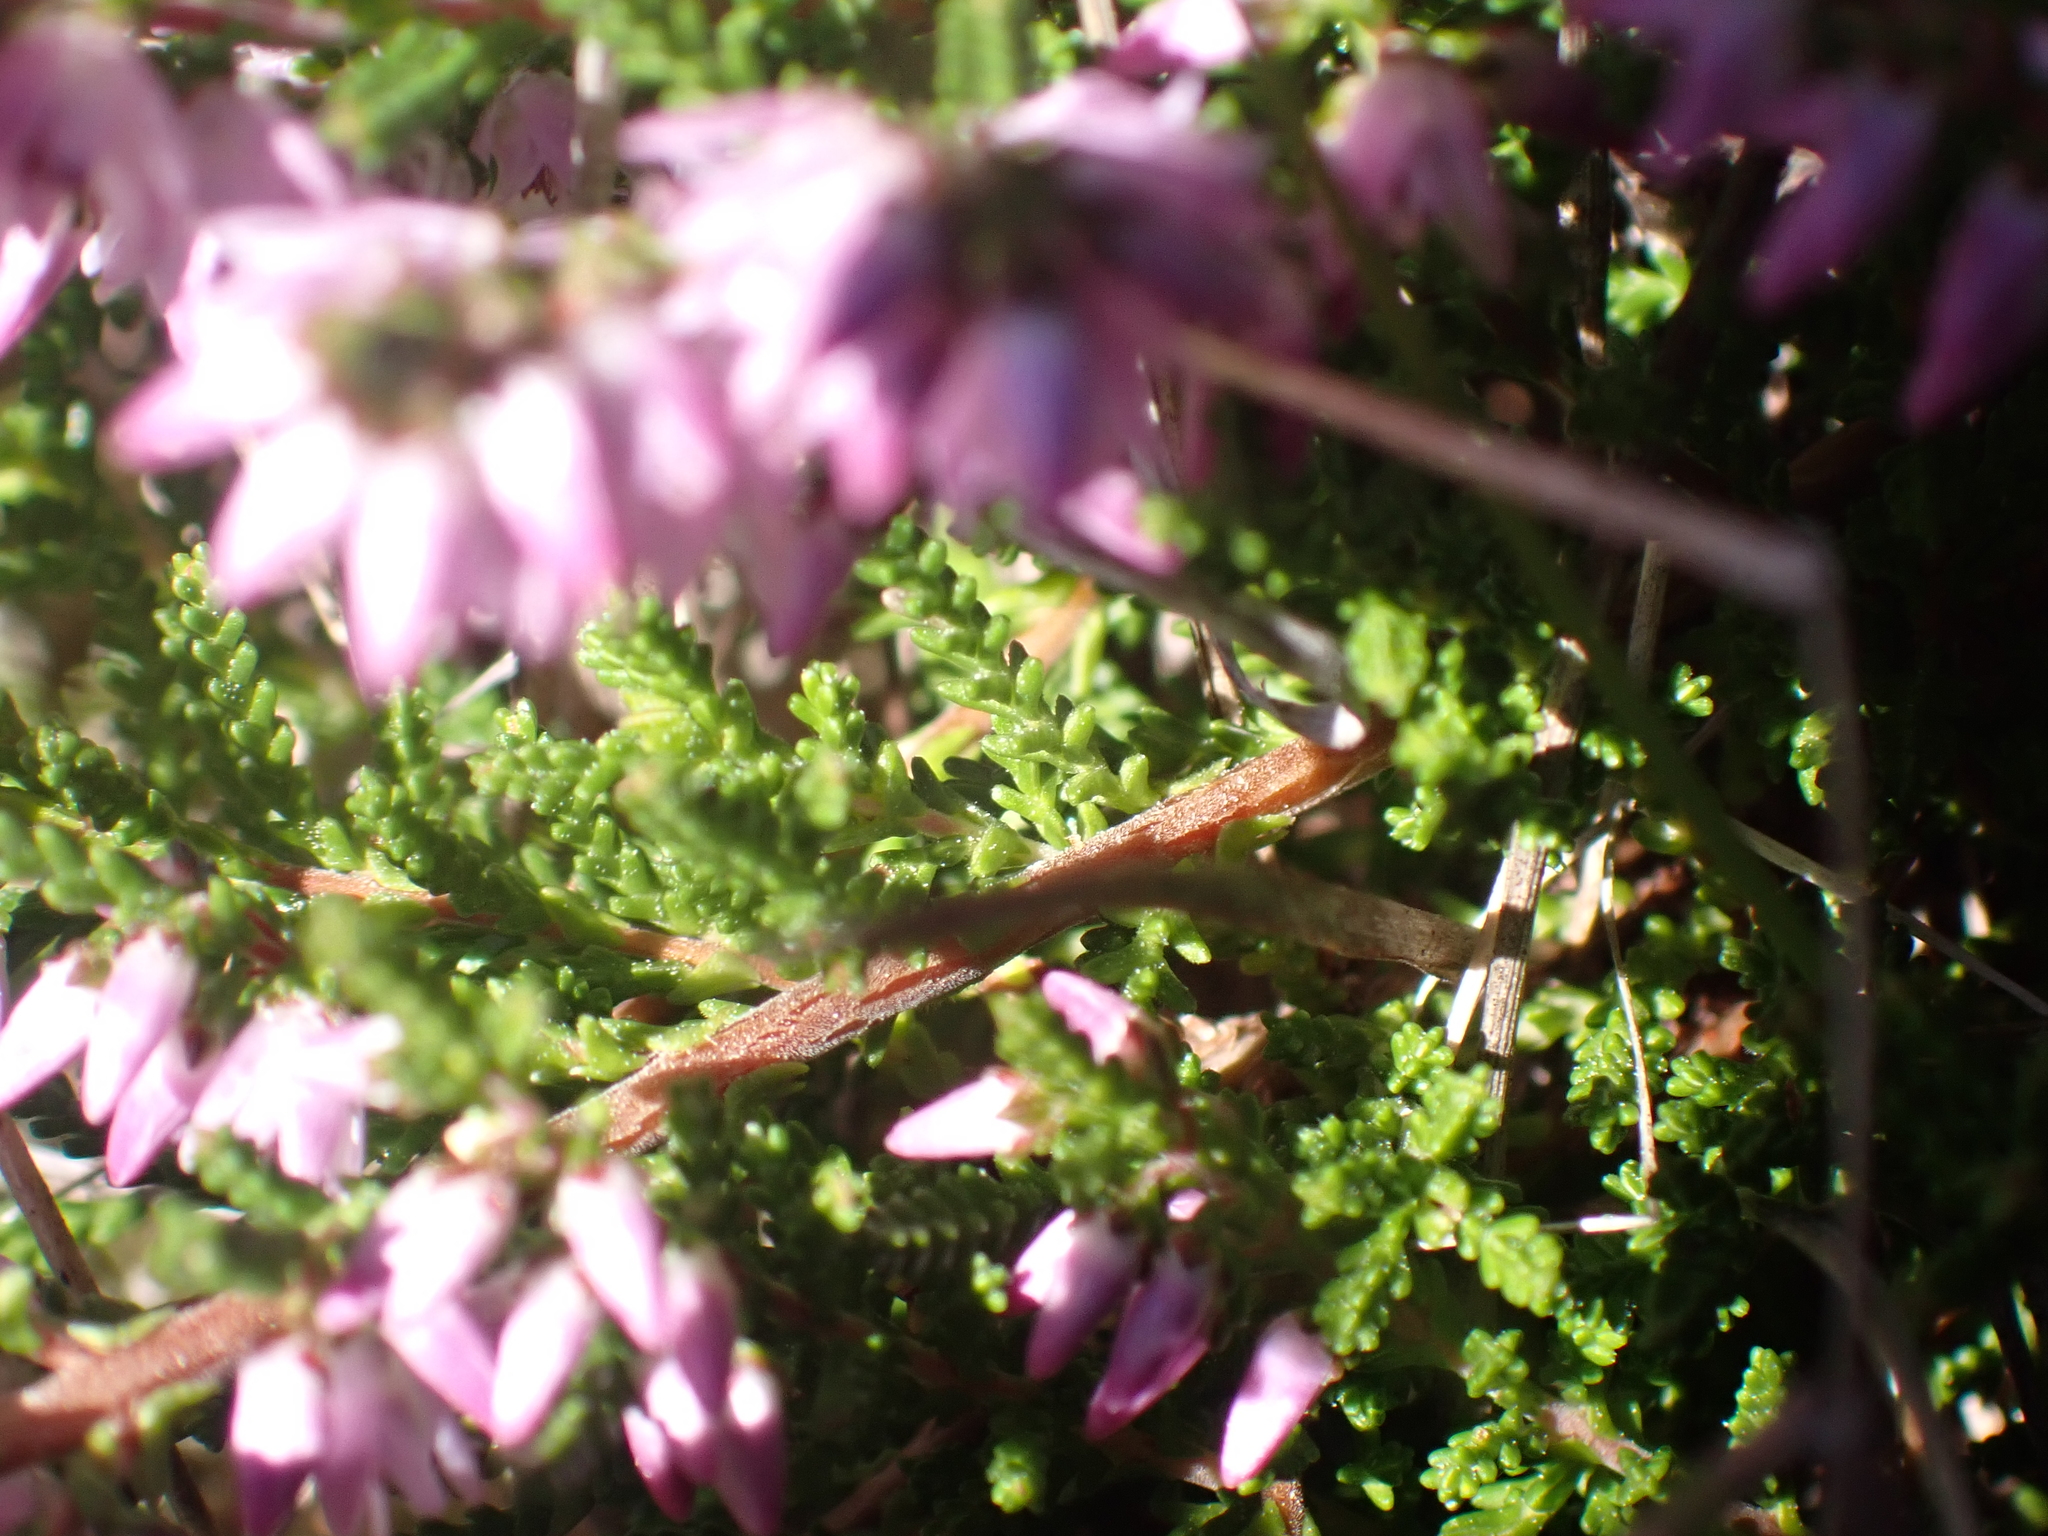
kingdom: Plantae
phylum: Tracheophyta
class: Magnoliopsida
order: Ericales
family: Ericaceae
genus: Calluna
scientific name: Calluna vulgaris
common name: Heather
